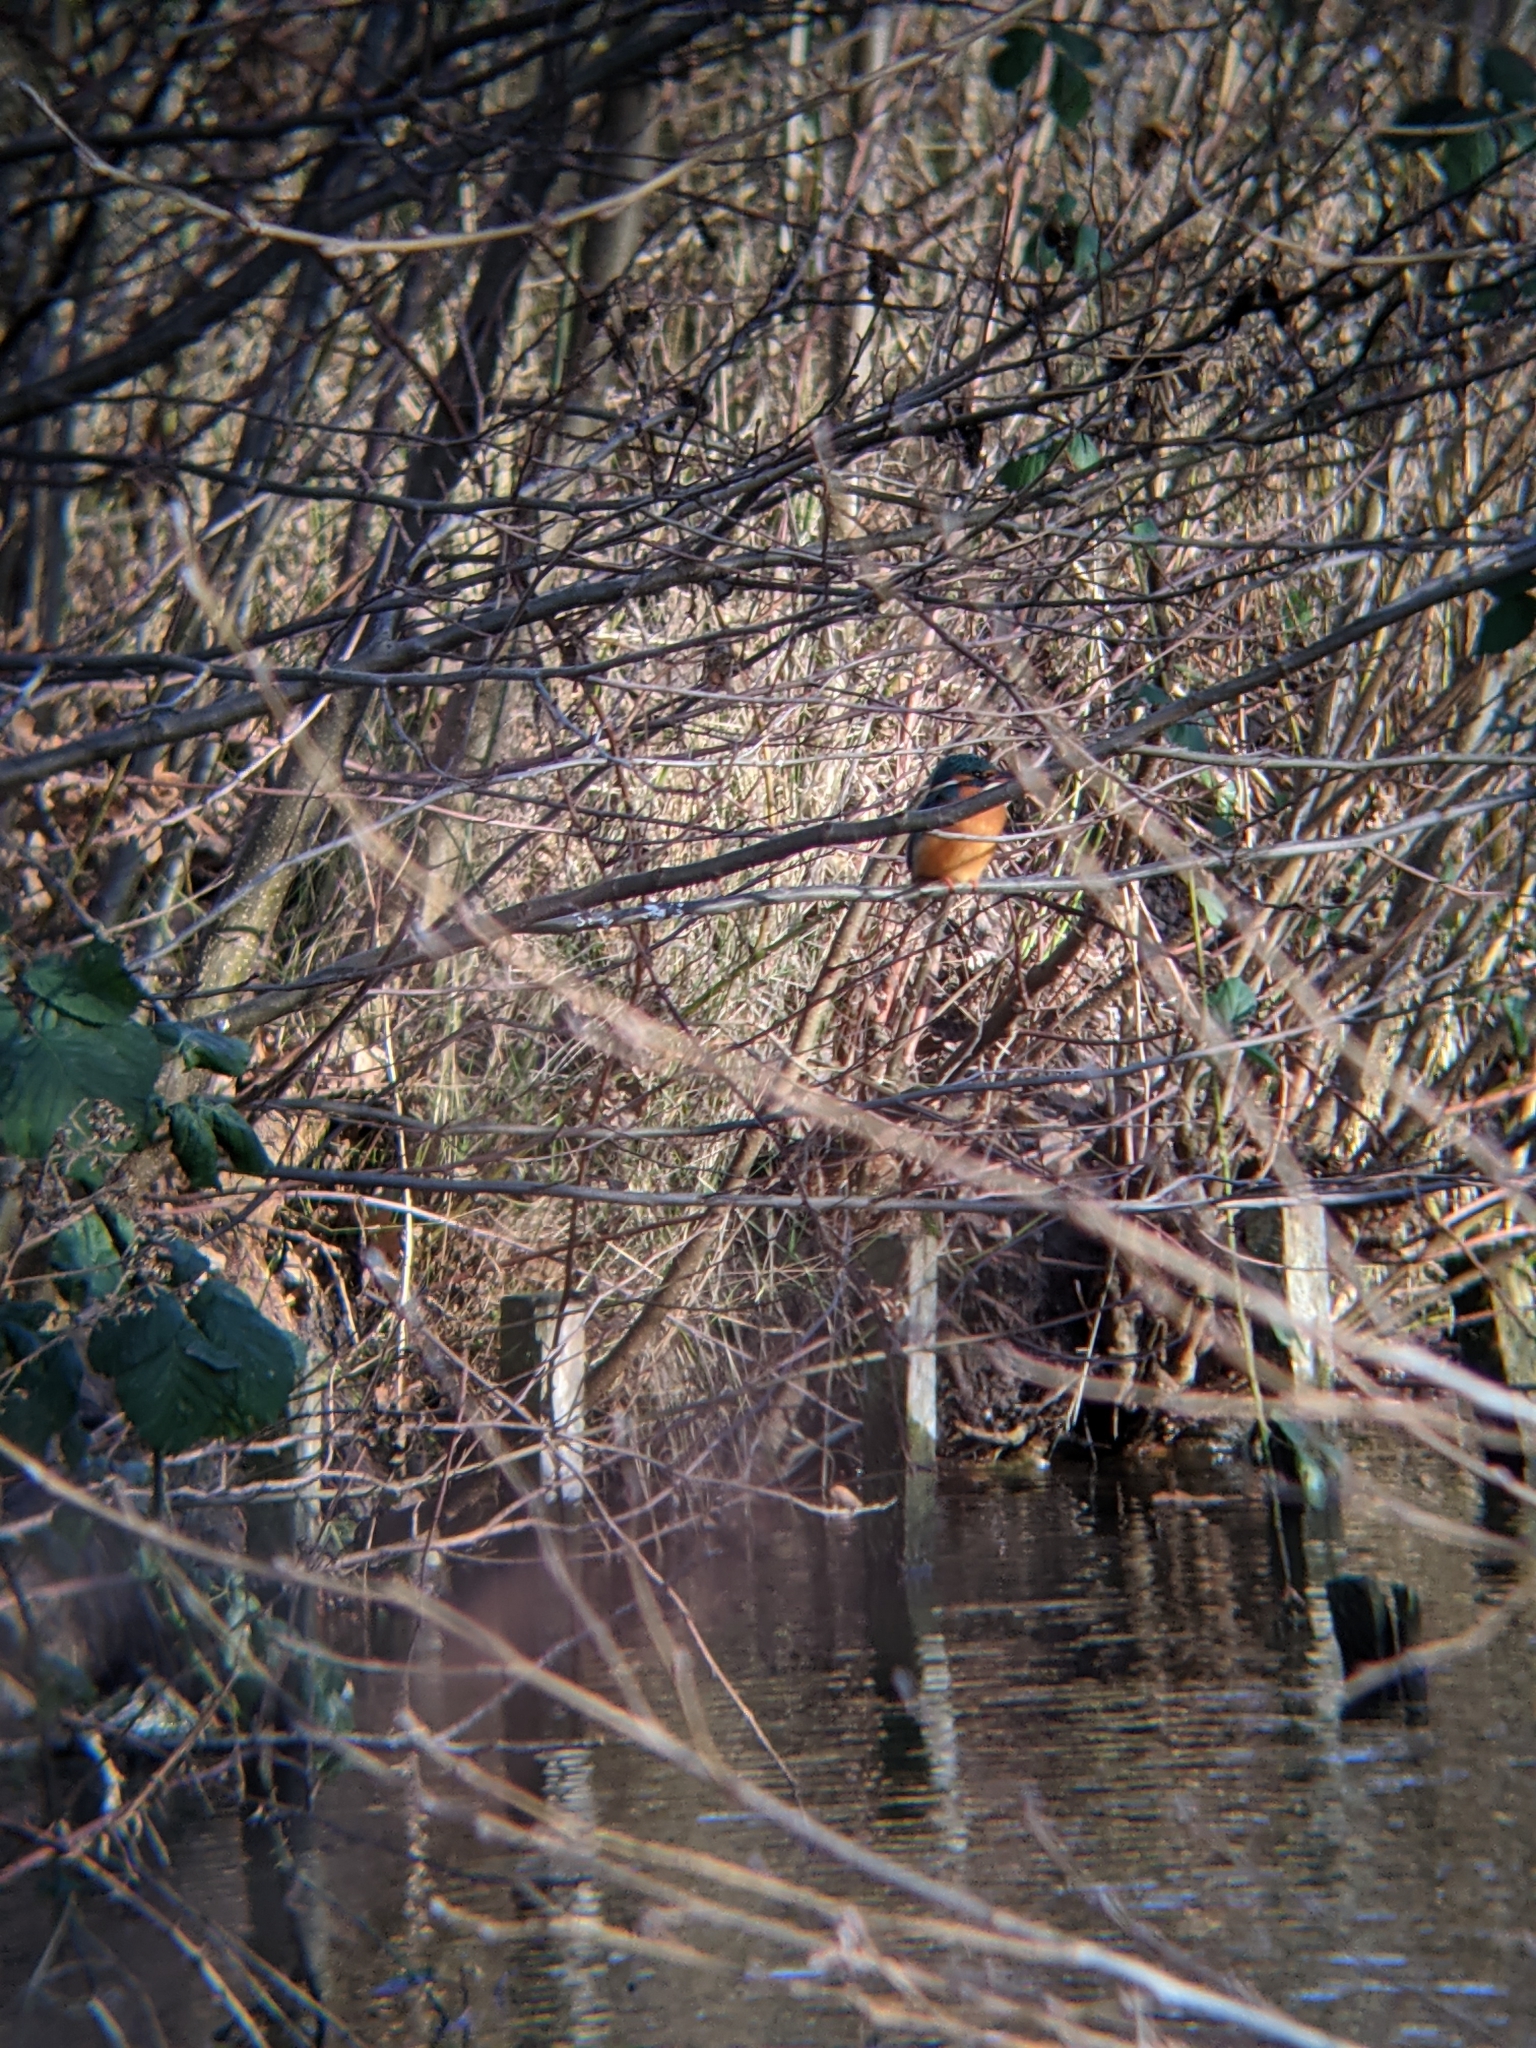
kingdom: Animalia
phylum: Chordata
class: Aves
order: Coraciiformes
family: Alcedinidae
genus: Alcedo
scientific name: Alcedo atthis
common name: Common kingfisher
